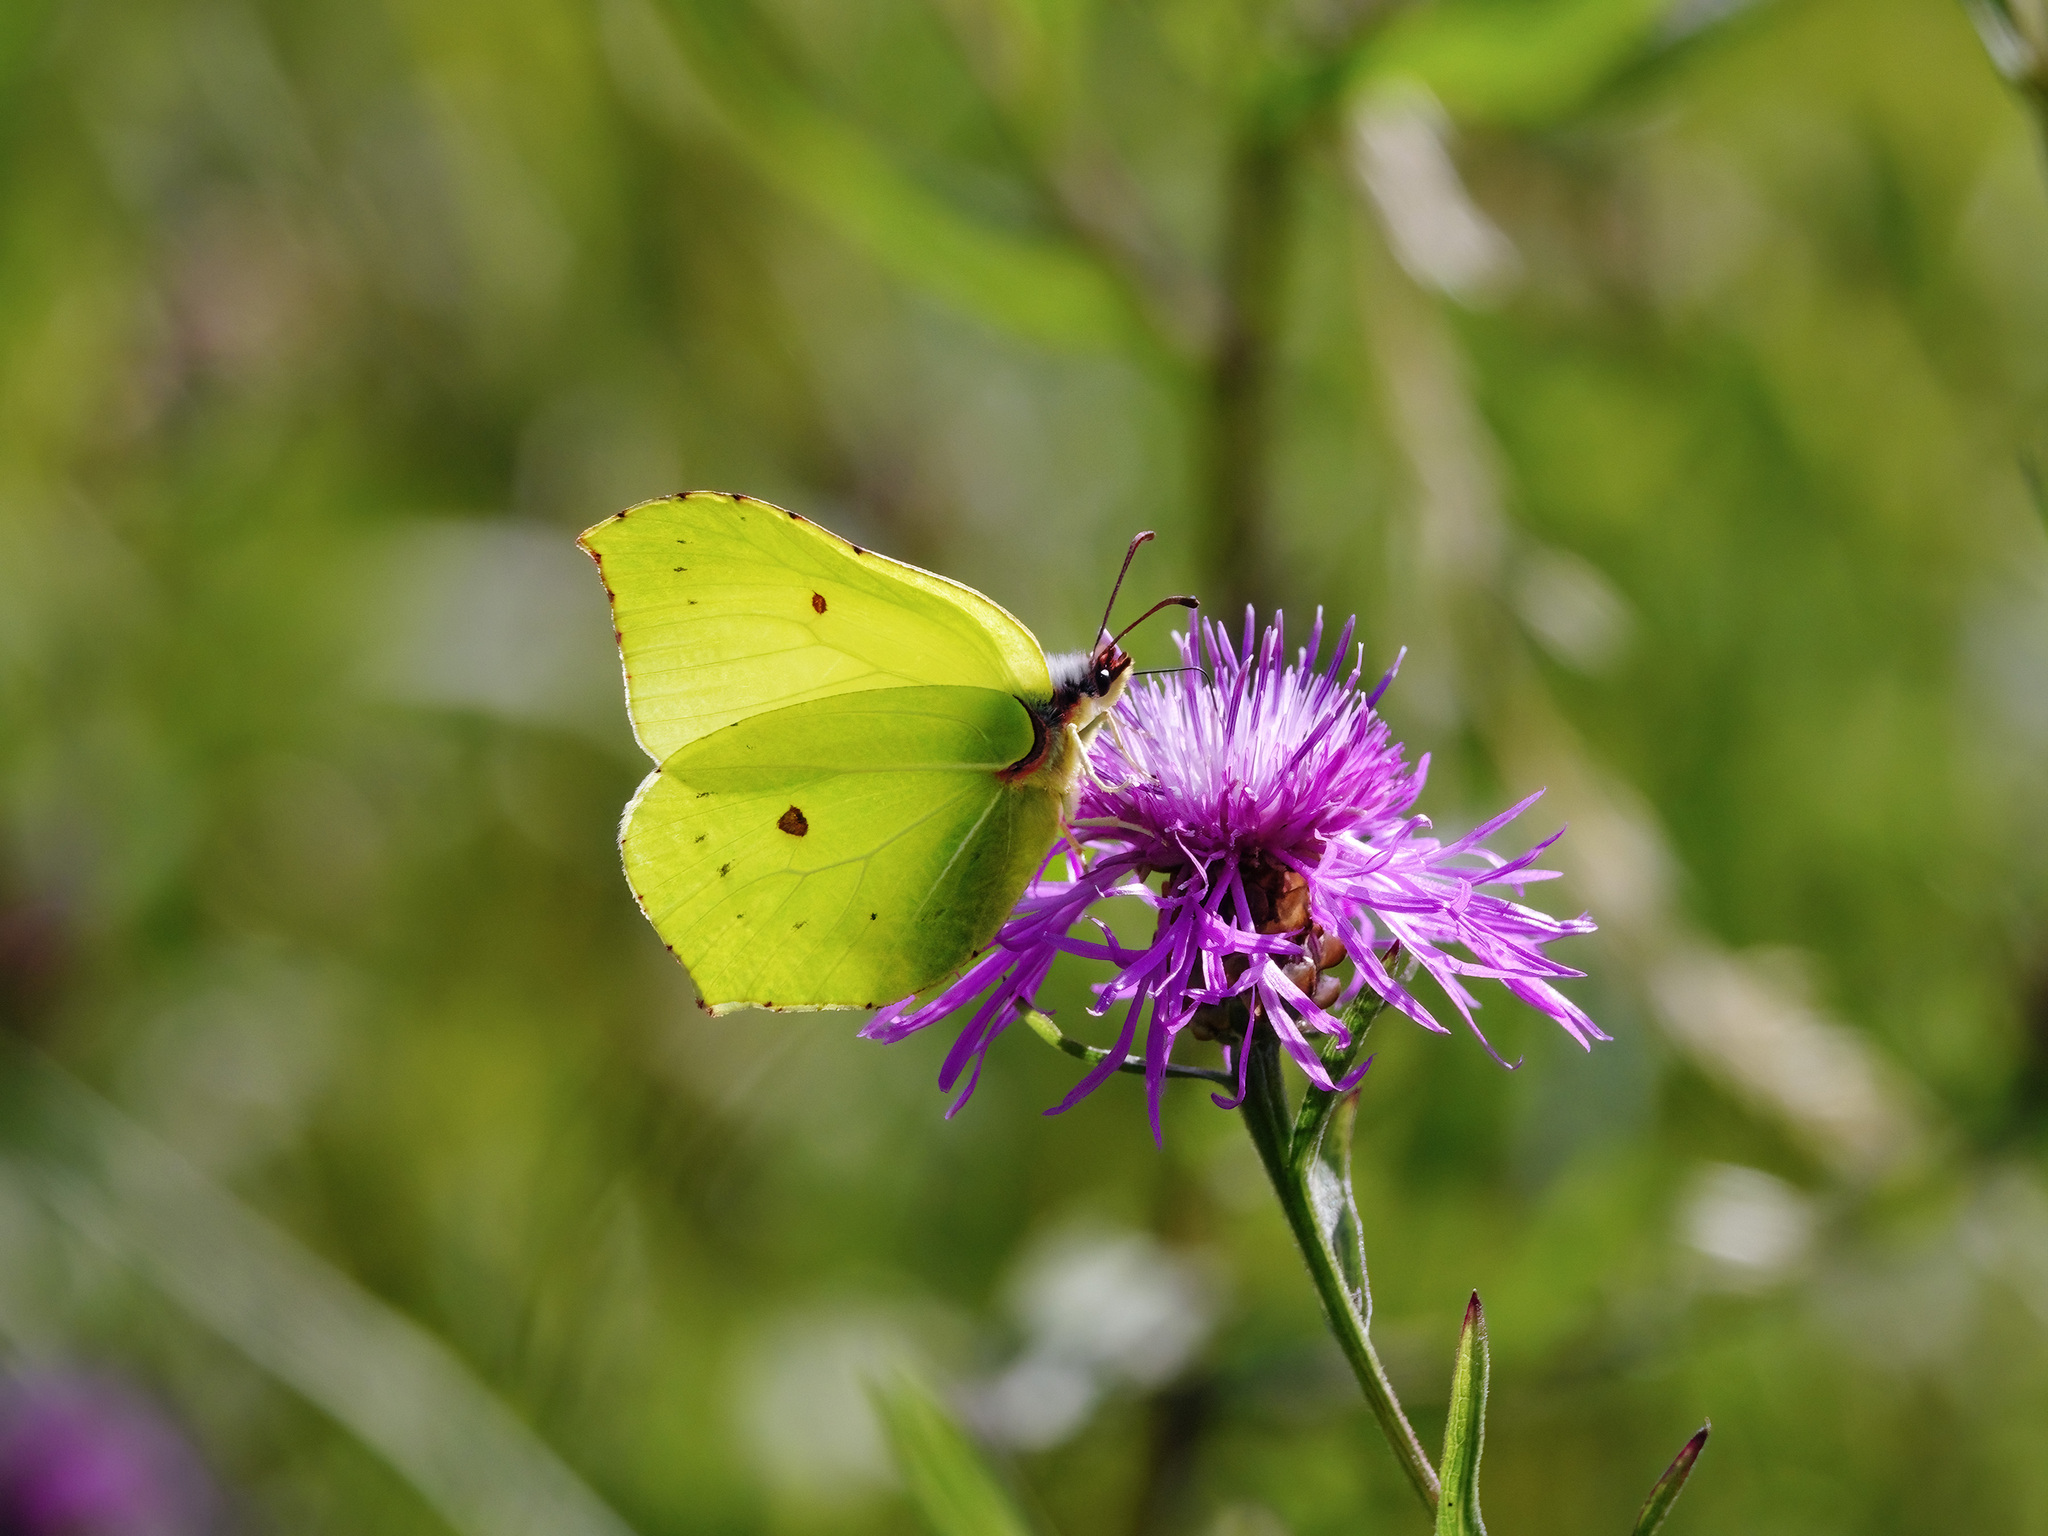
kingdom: Animalia
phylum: Arthropoda
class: Insecta
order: Lepidoptera
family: Pieridae
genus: Gonepteryx
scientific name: Gonepteryx rhamni
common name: Brimstone
